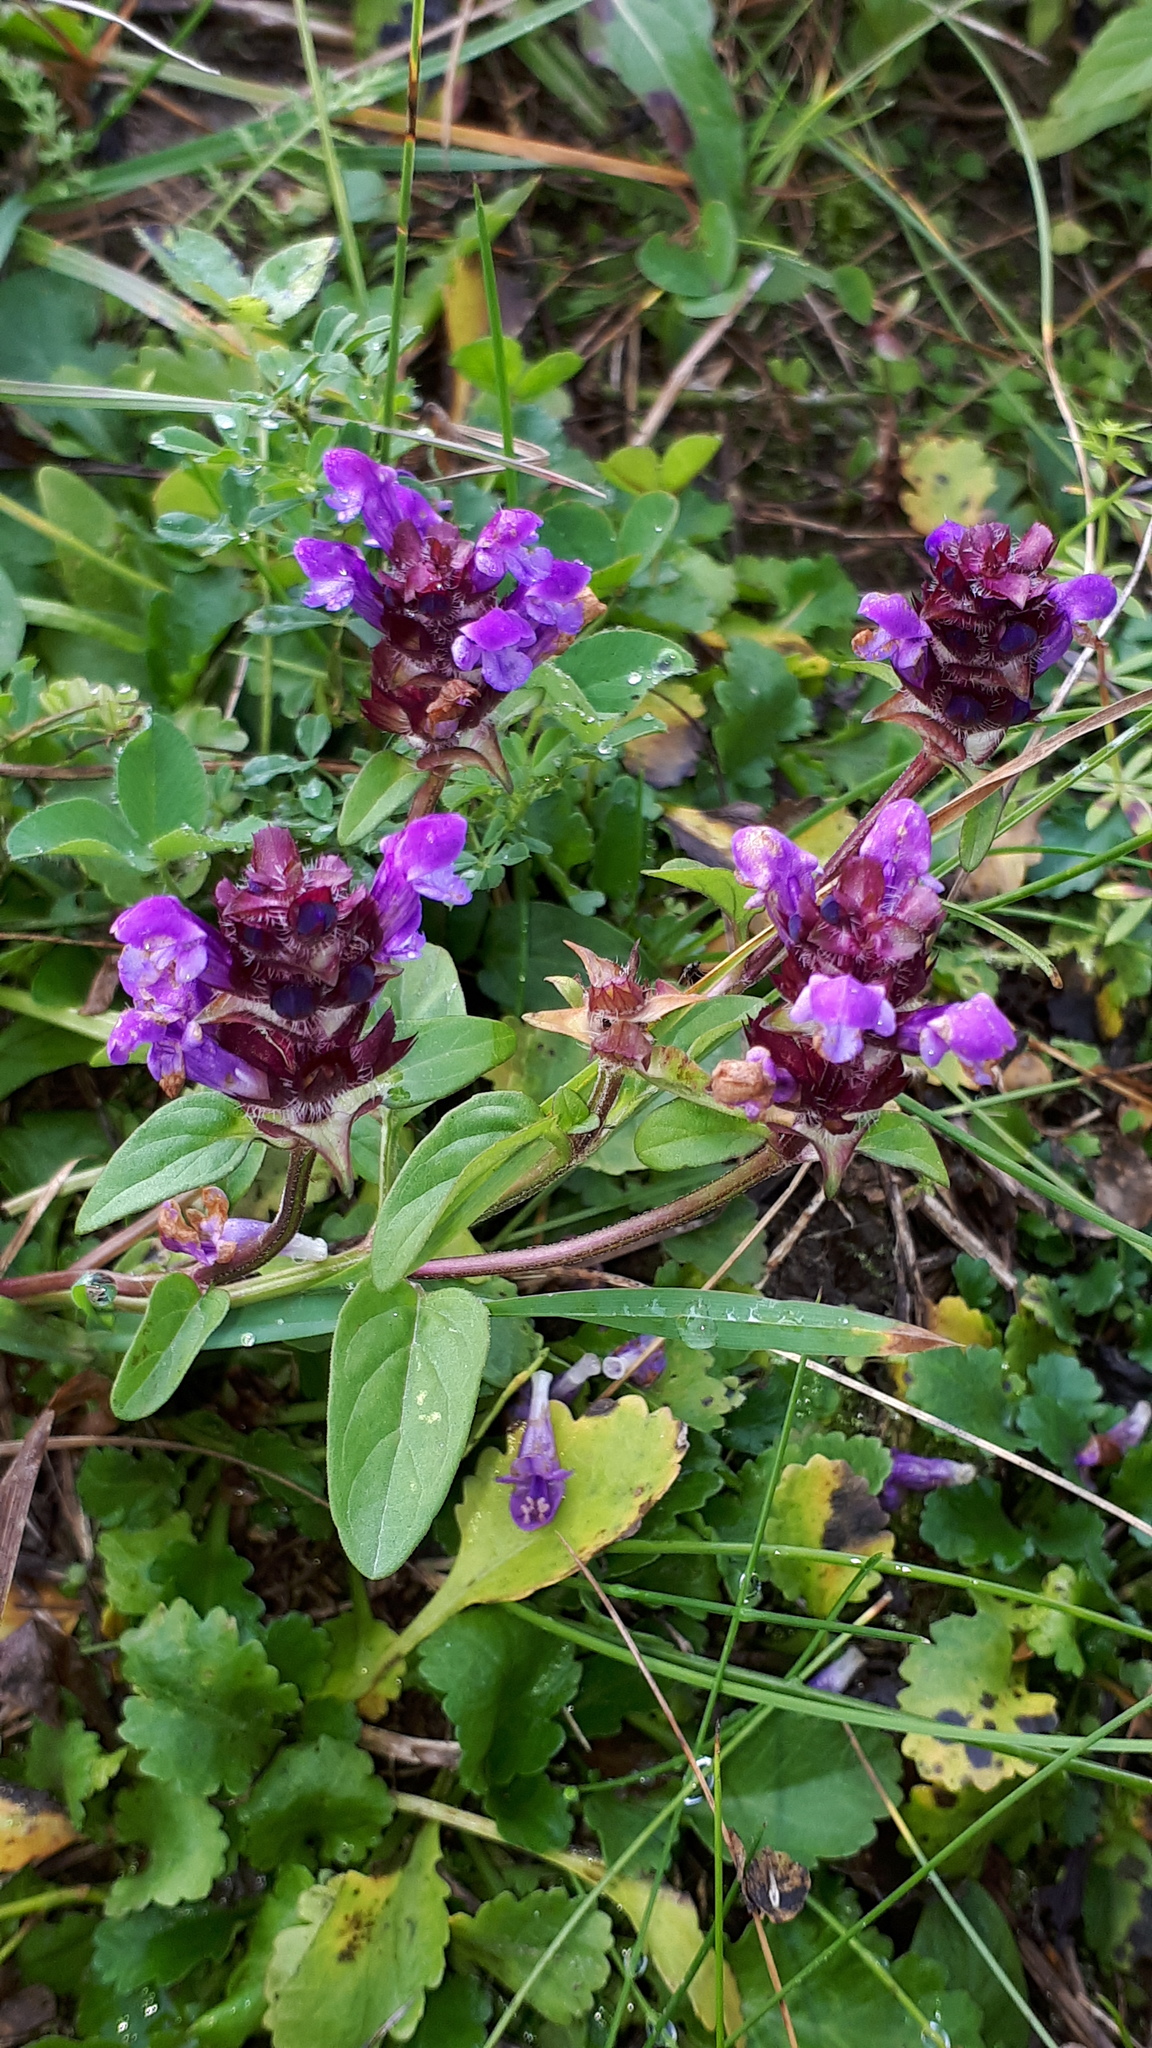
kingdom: Plantae
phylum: Tracheophyta
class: Magnoliopsida
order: Lamiales
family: Lamiaceae
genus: Prunella
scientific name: Prunella vulgaris
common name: Heal-all
